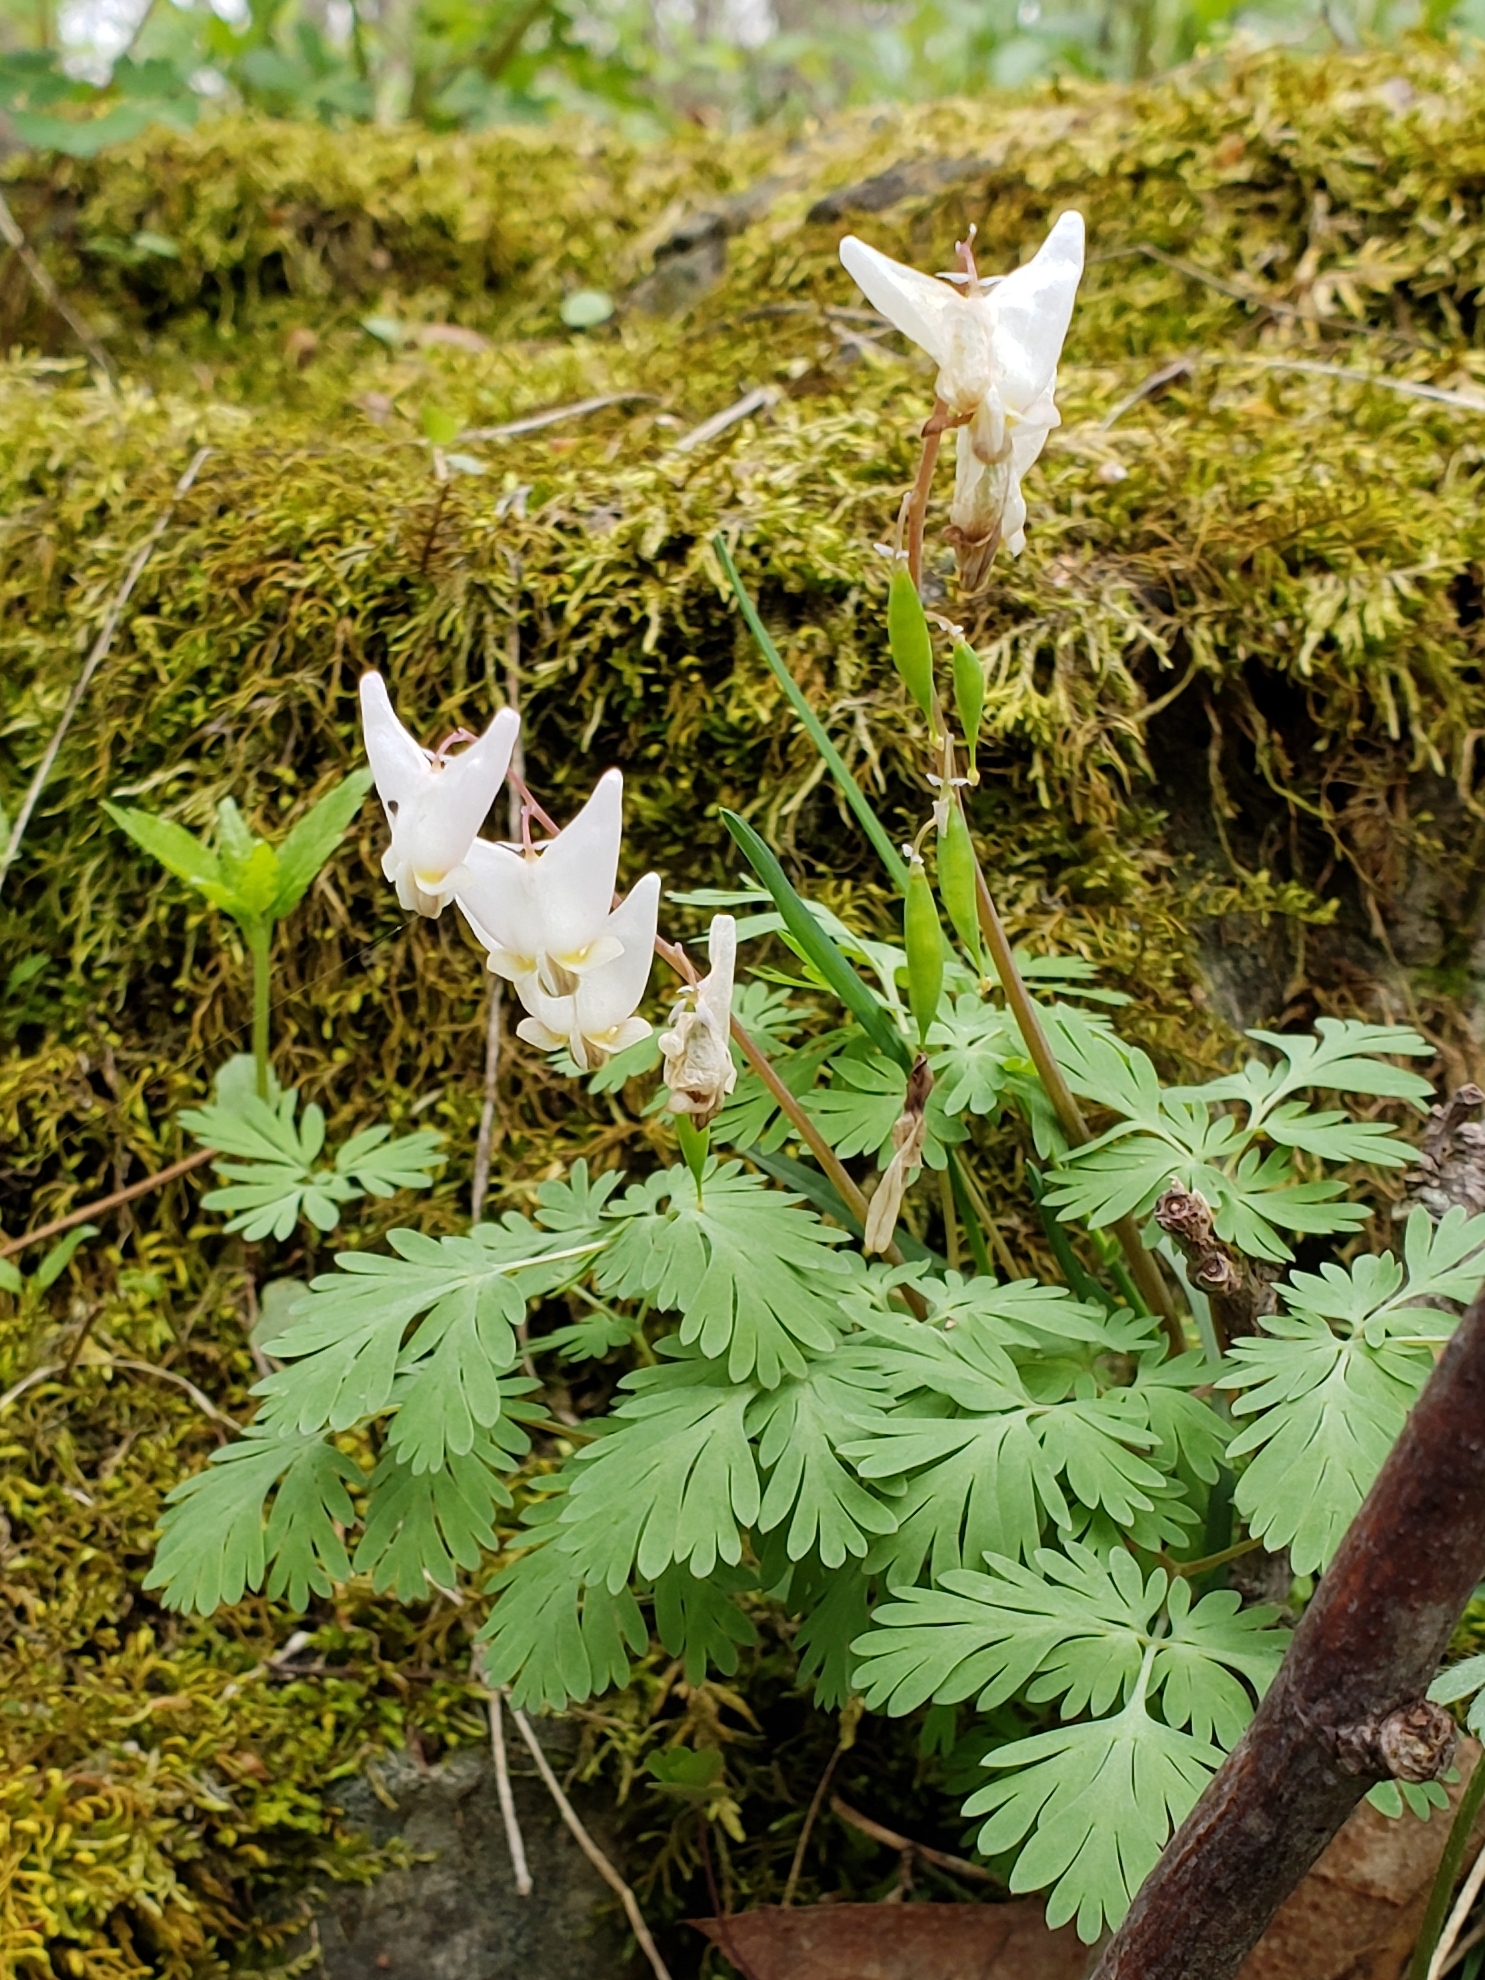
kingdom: Plantae
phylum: Tracheophyta
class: Magnoliopsida
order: Ranunculales
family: Papaveraceae
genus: Dicentra
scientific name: Dicentra cucullaria
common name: Dutchman's breeches
